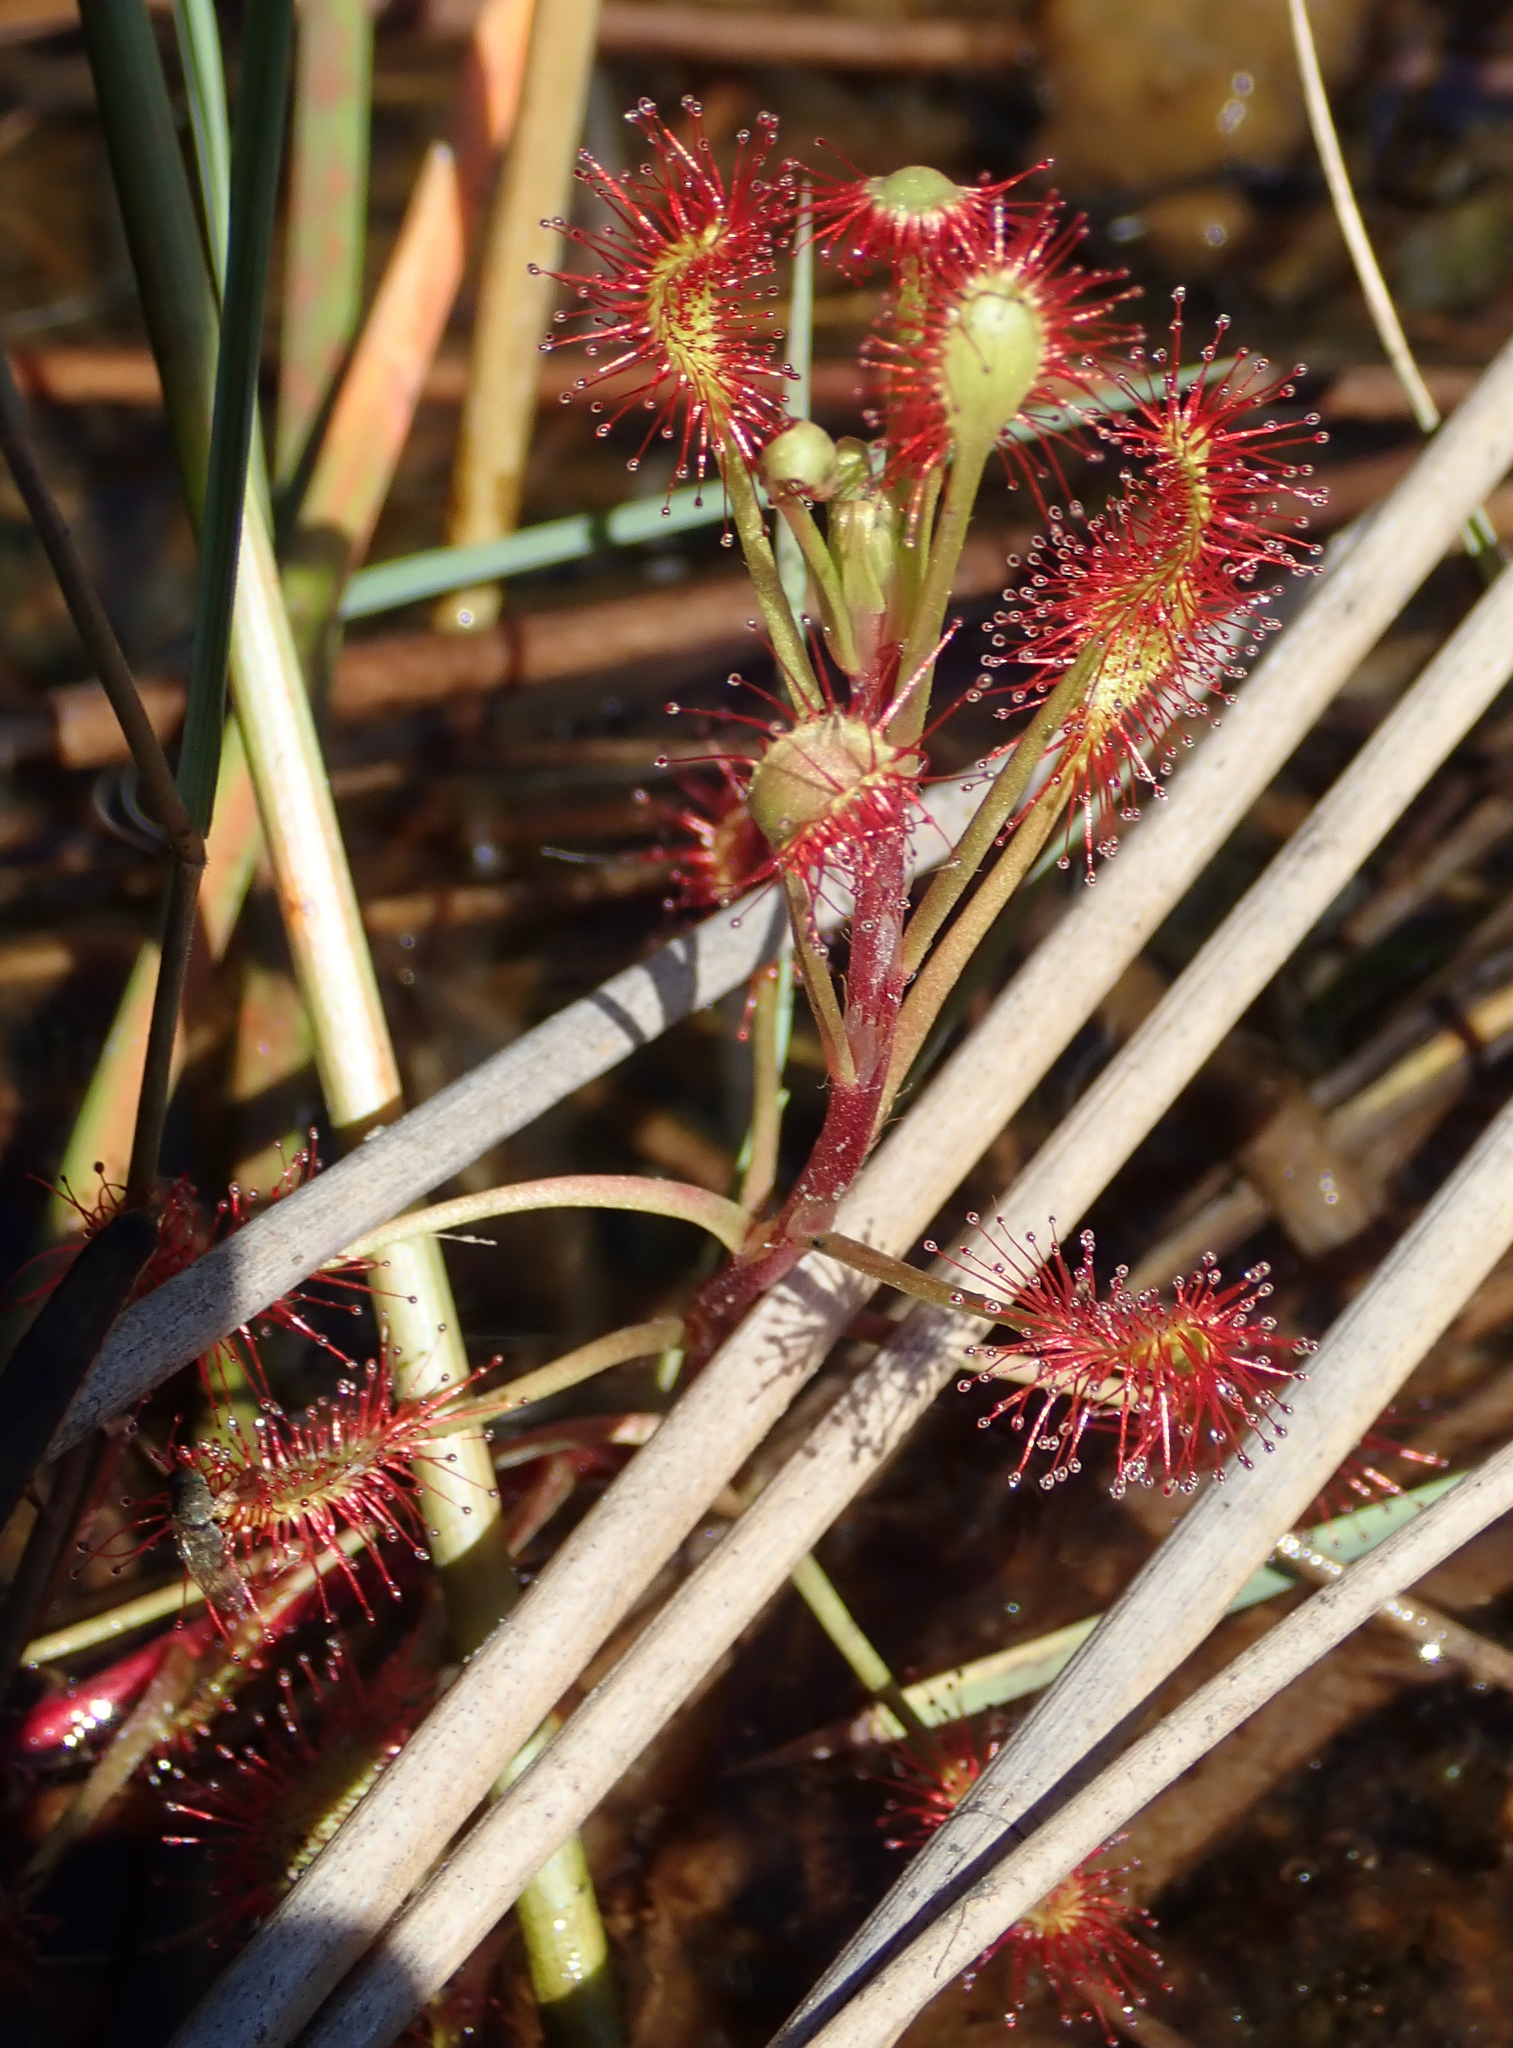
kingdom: Plantae
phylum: Tracheophyta
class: Magnoliopsida
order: Caryophyllales
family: Droseraceae
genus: Drosera
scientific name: Drosera madagascariensis
